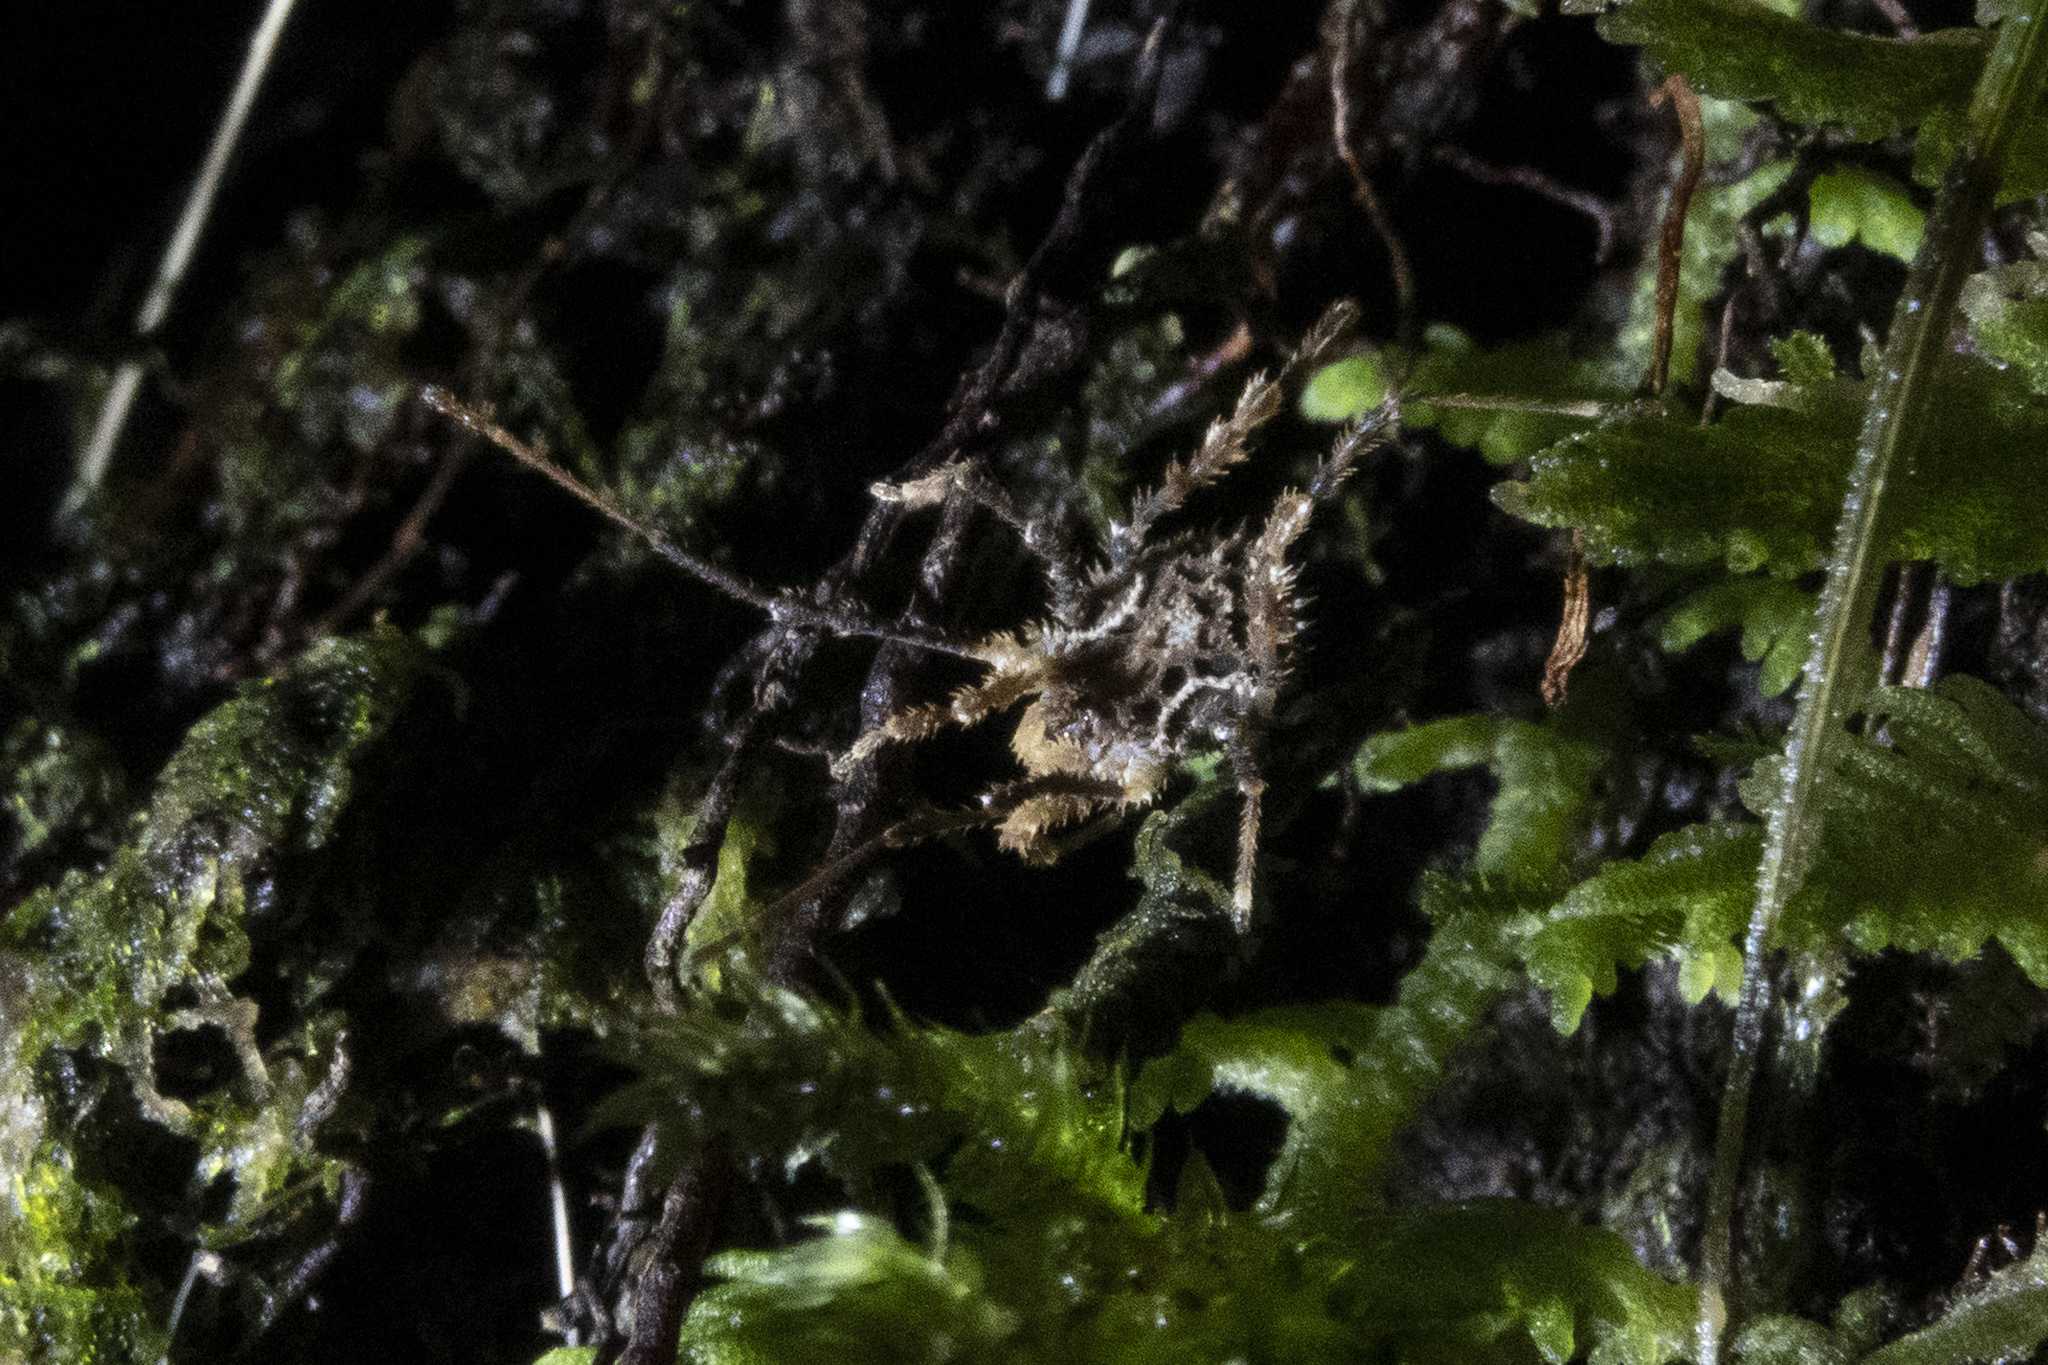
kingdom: Animalia
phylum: Arthropoda
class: Arachnida
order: Opiliones
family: Triaenonychidae
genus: Pristobunus
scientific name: Pristobunus acuminatus
